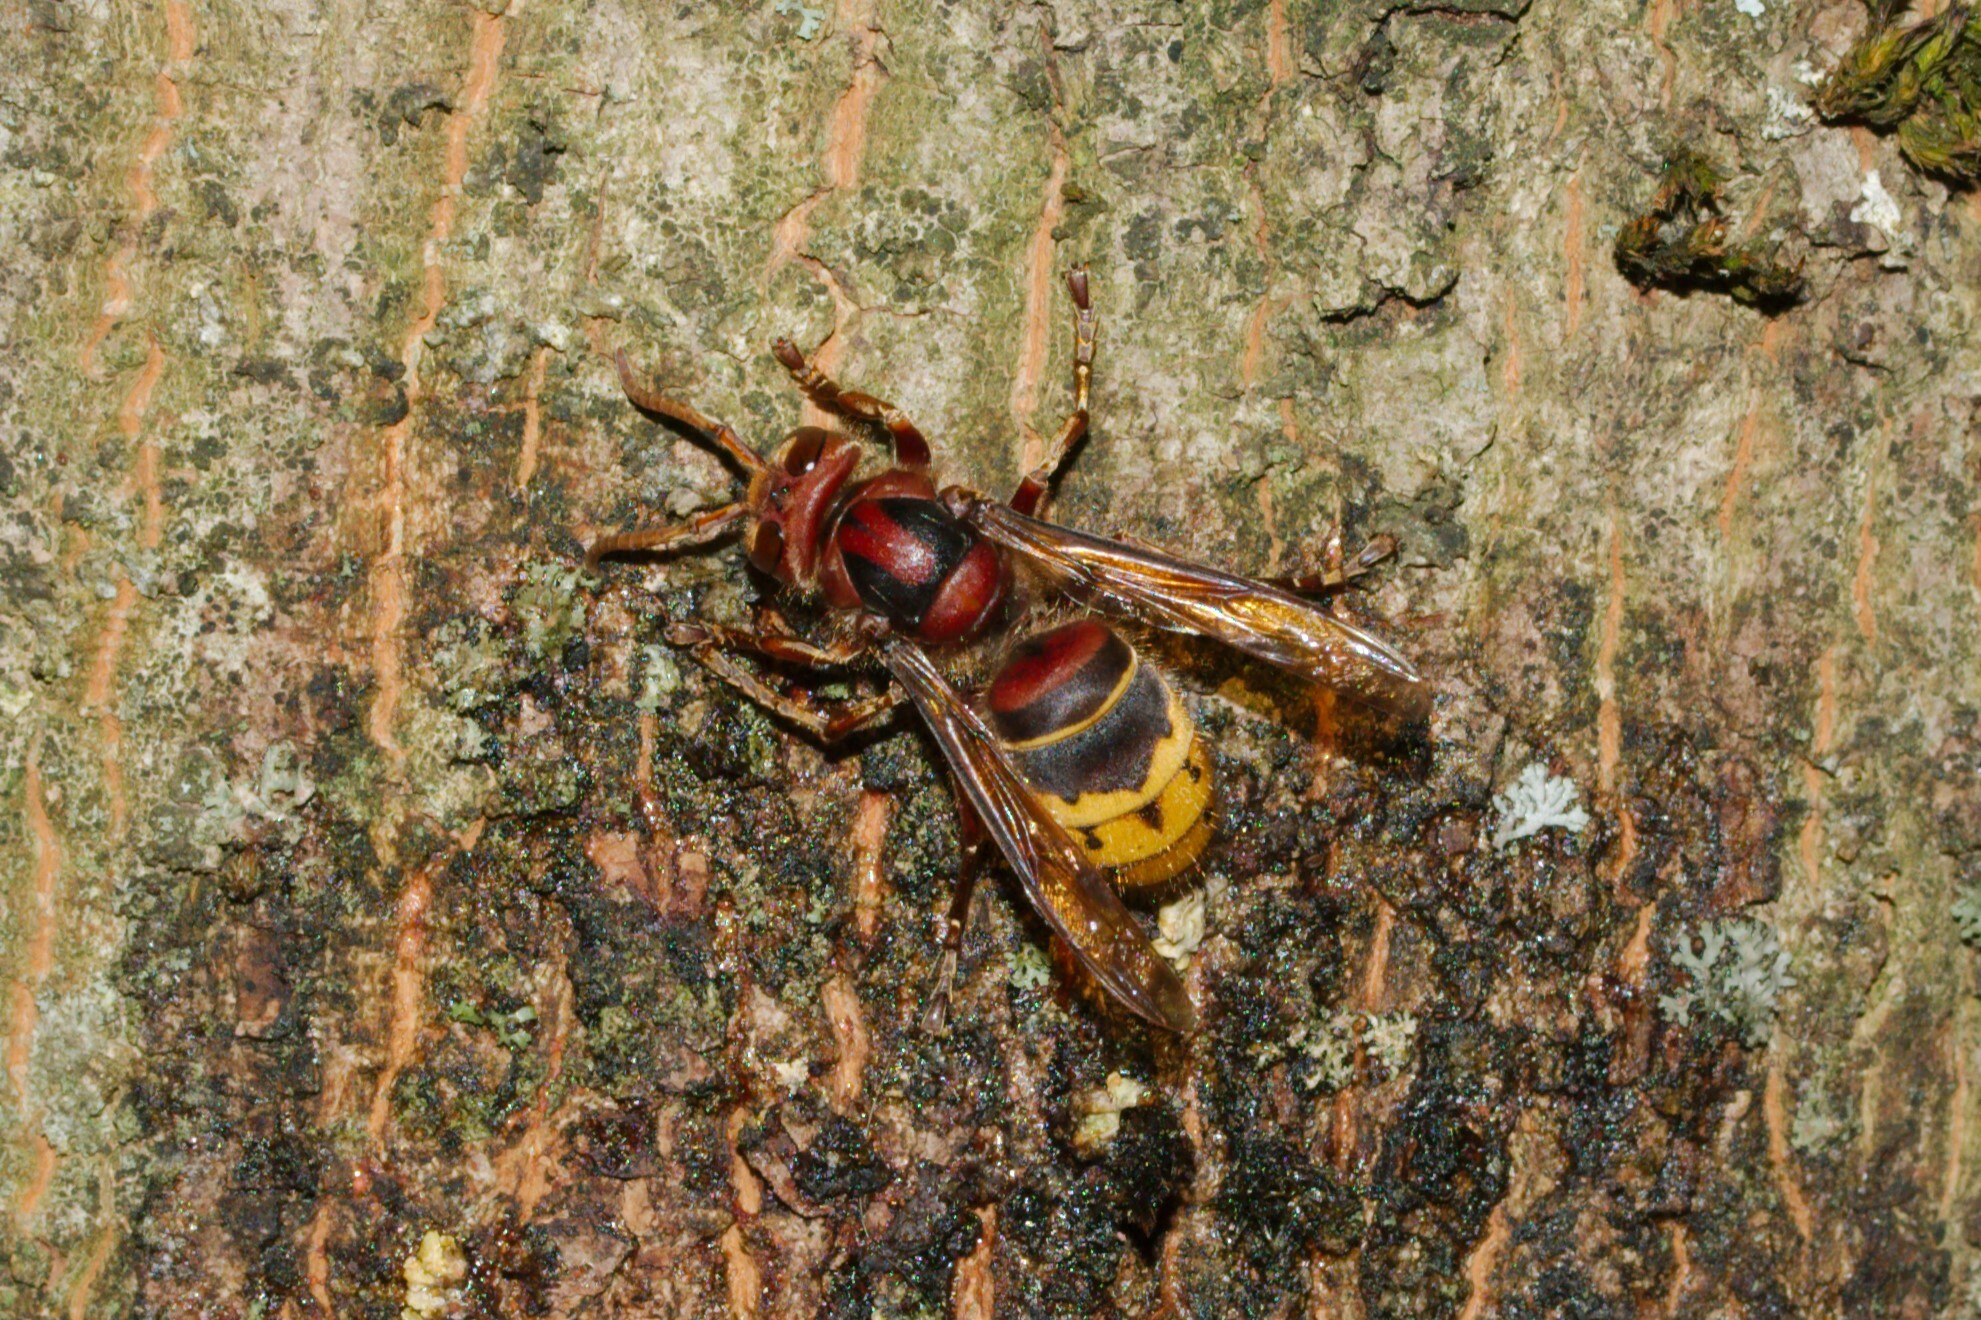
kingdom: Animalia
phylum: Arthropoda
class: Insecta
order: Hymenoptera
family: Vespidae
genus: Vespa
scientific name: Vespa crabro
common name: Hornet
